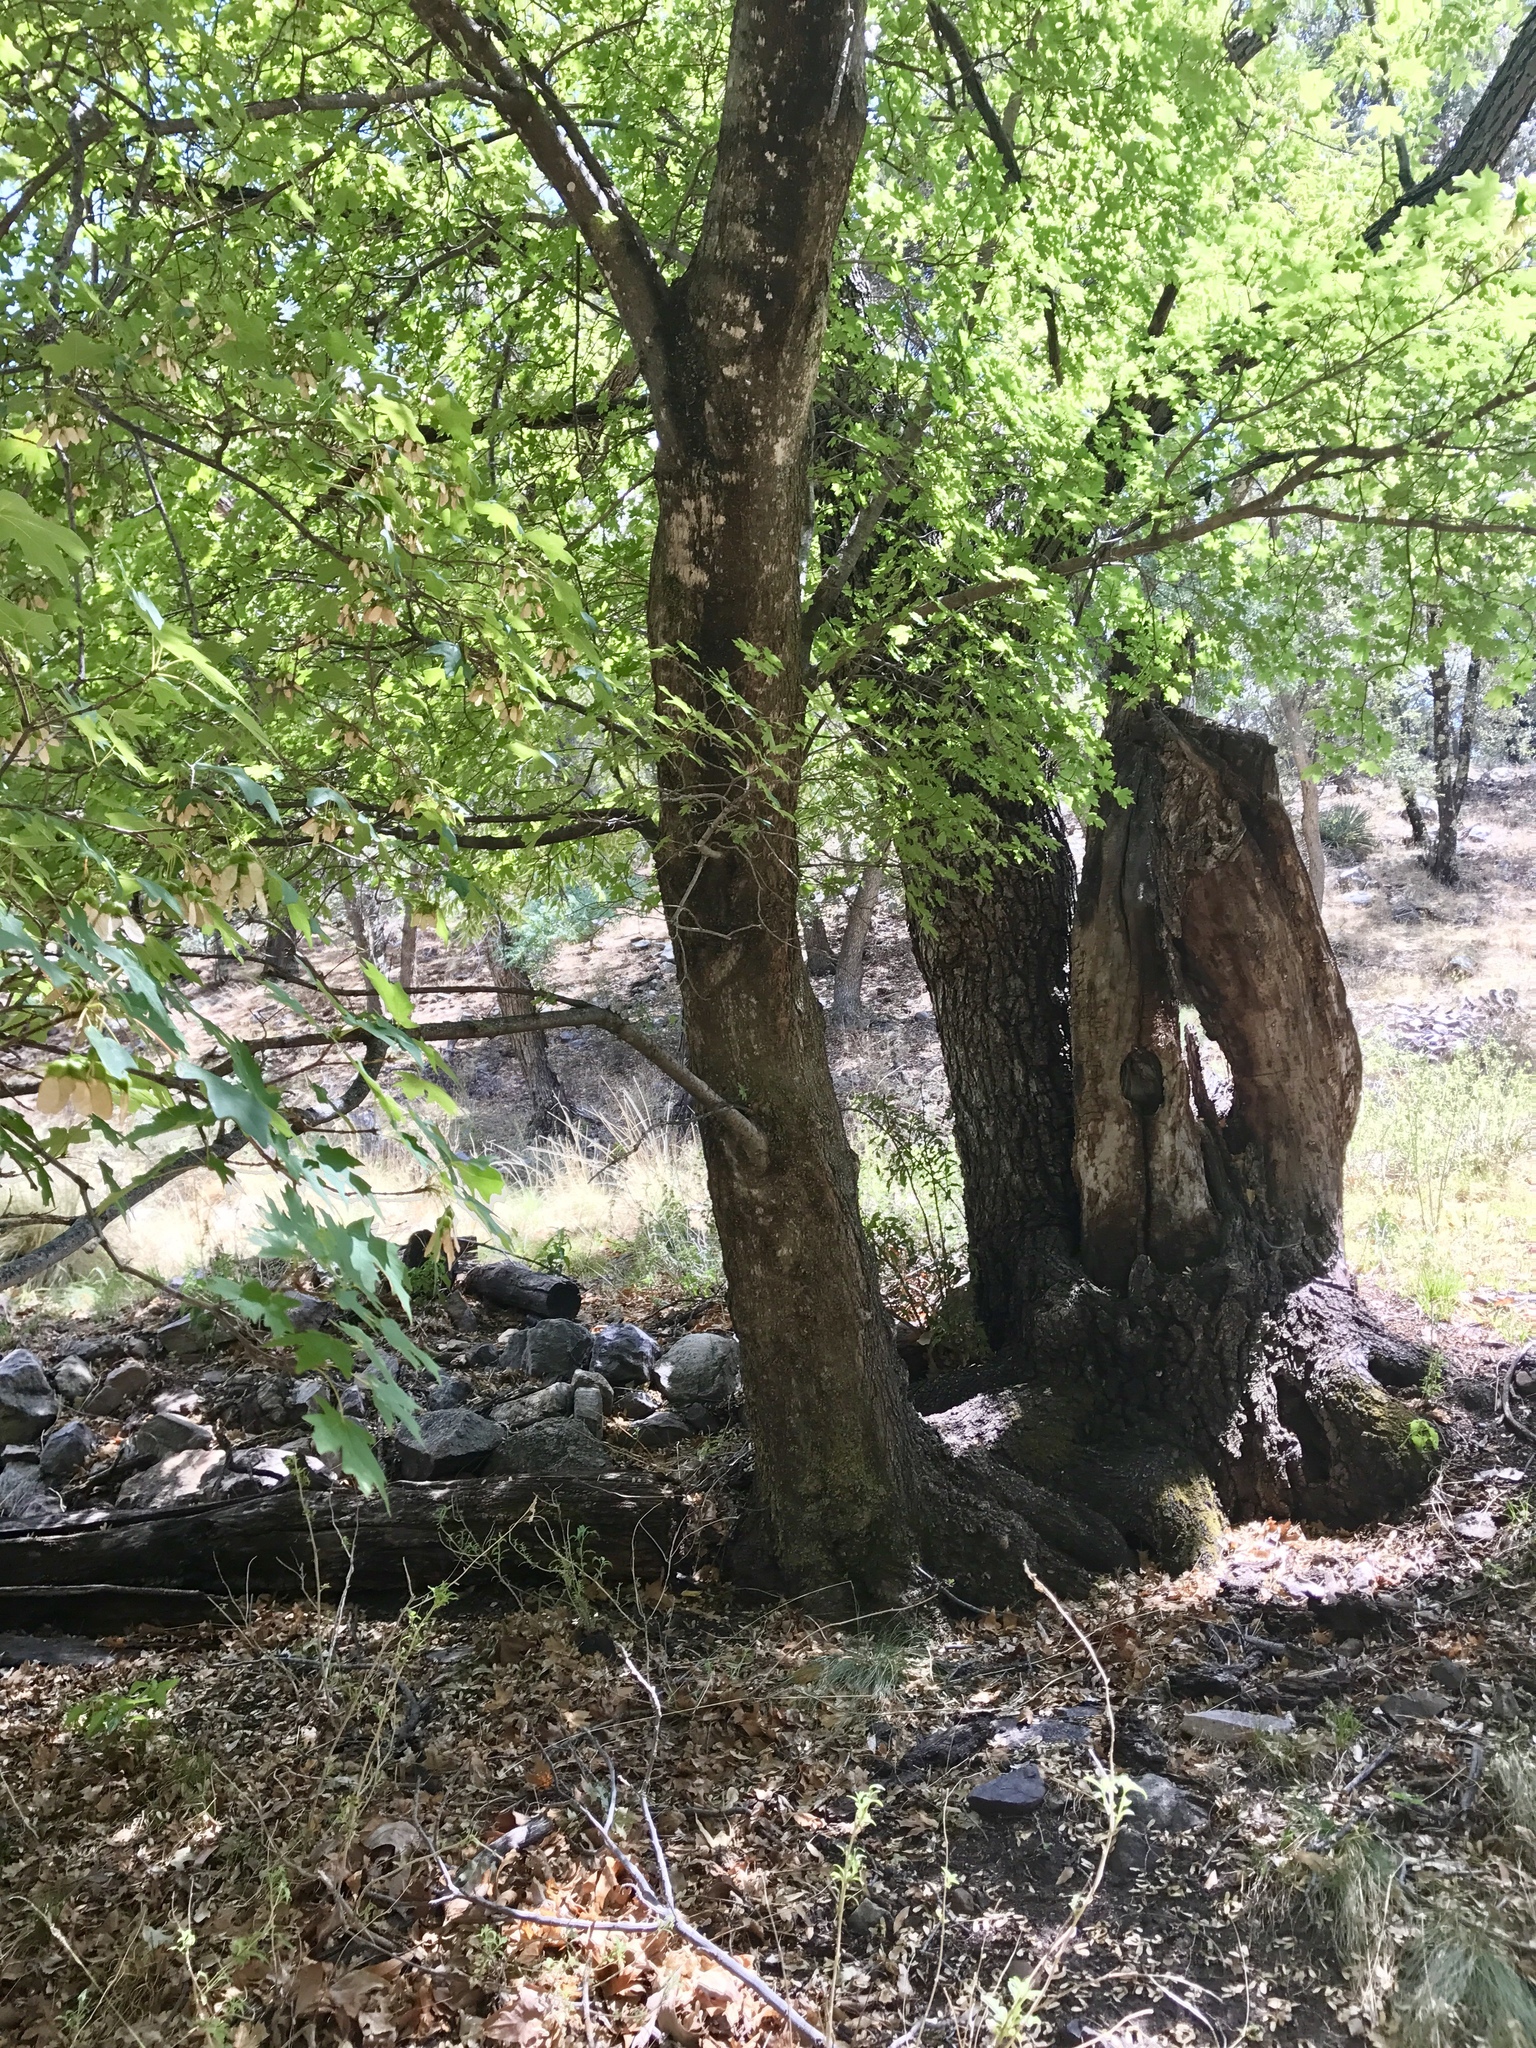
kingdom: Plantae
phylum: Tracheophyta
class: Magnoliopsida
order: Sapindales
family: Sapindaceae
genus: Acer
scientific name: Acer grandidentatum
